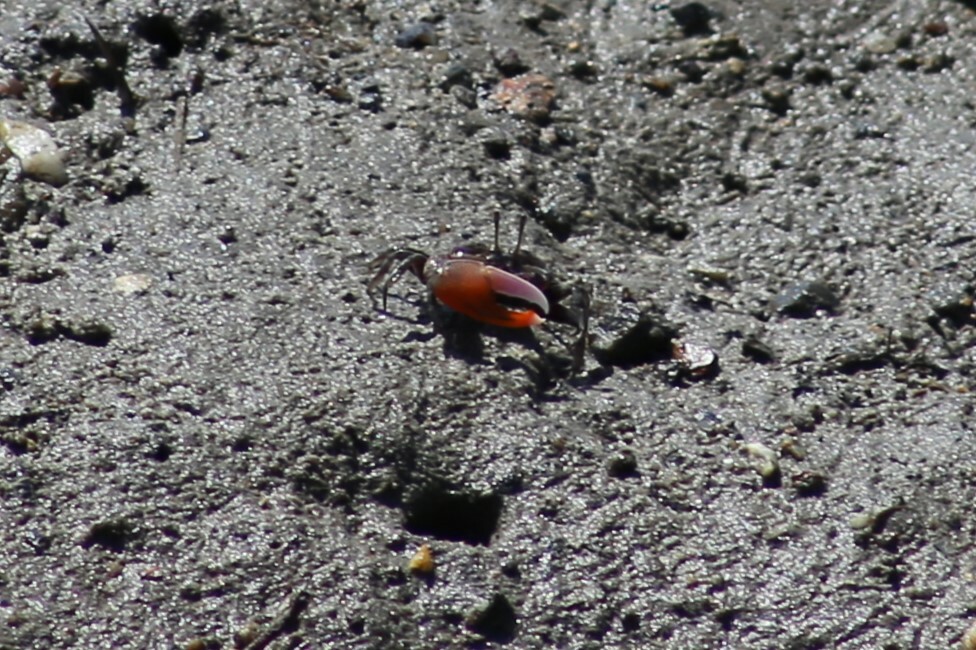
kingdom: Animalia
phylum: Arthropoda
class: Malacostraca
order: Decapoda
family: Ocypodidae
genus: Gelasimus
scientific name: Gelasimus vomeris
